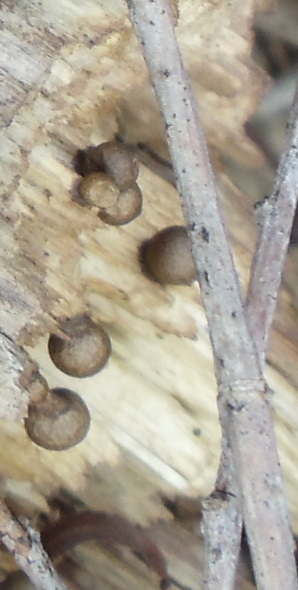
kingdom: Protozoa
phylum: Mycetozoa
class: Myxomycetes
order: Cribrariales
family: Tubiferaceae
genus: Lycogala
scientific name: Lycogala epidendrum
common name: Wolf's milk
